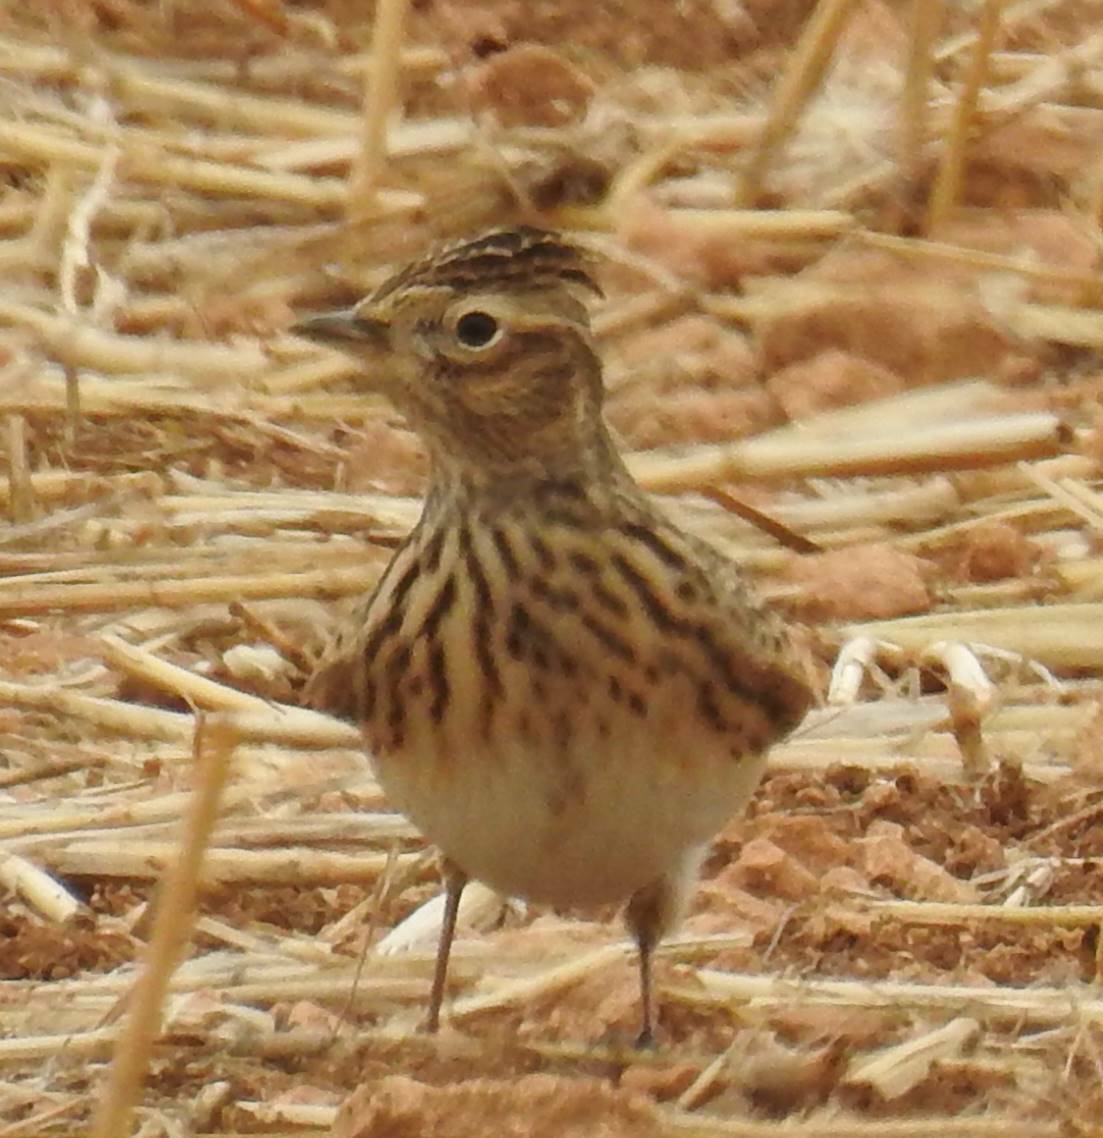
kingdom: Animalia
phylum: Chordata
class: Aves
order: Passeriformes
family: Alaudidae
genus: Alauda
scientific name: Alauda arvensis
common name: Eurasian skylark
